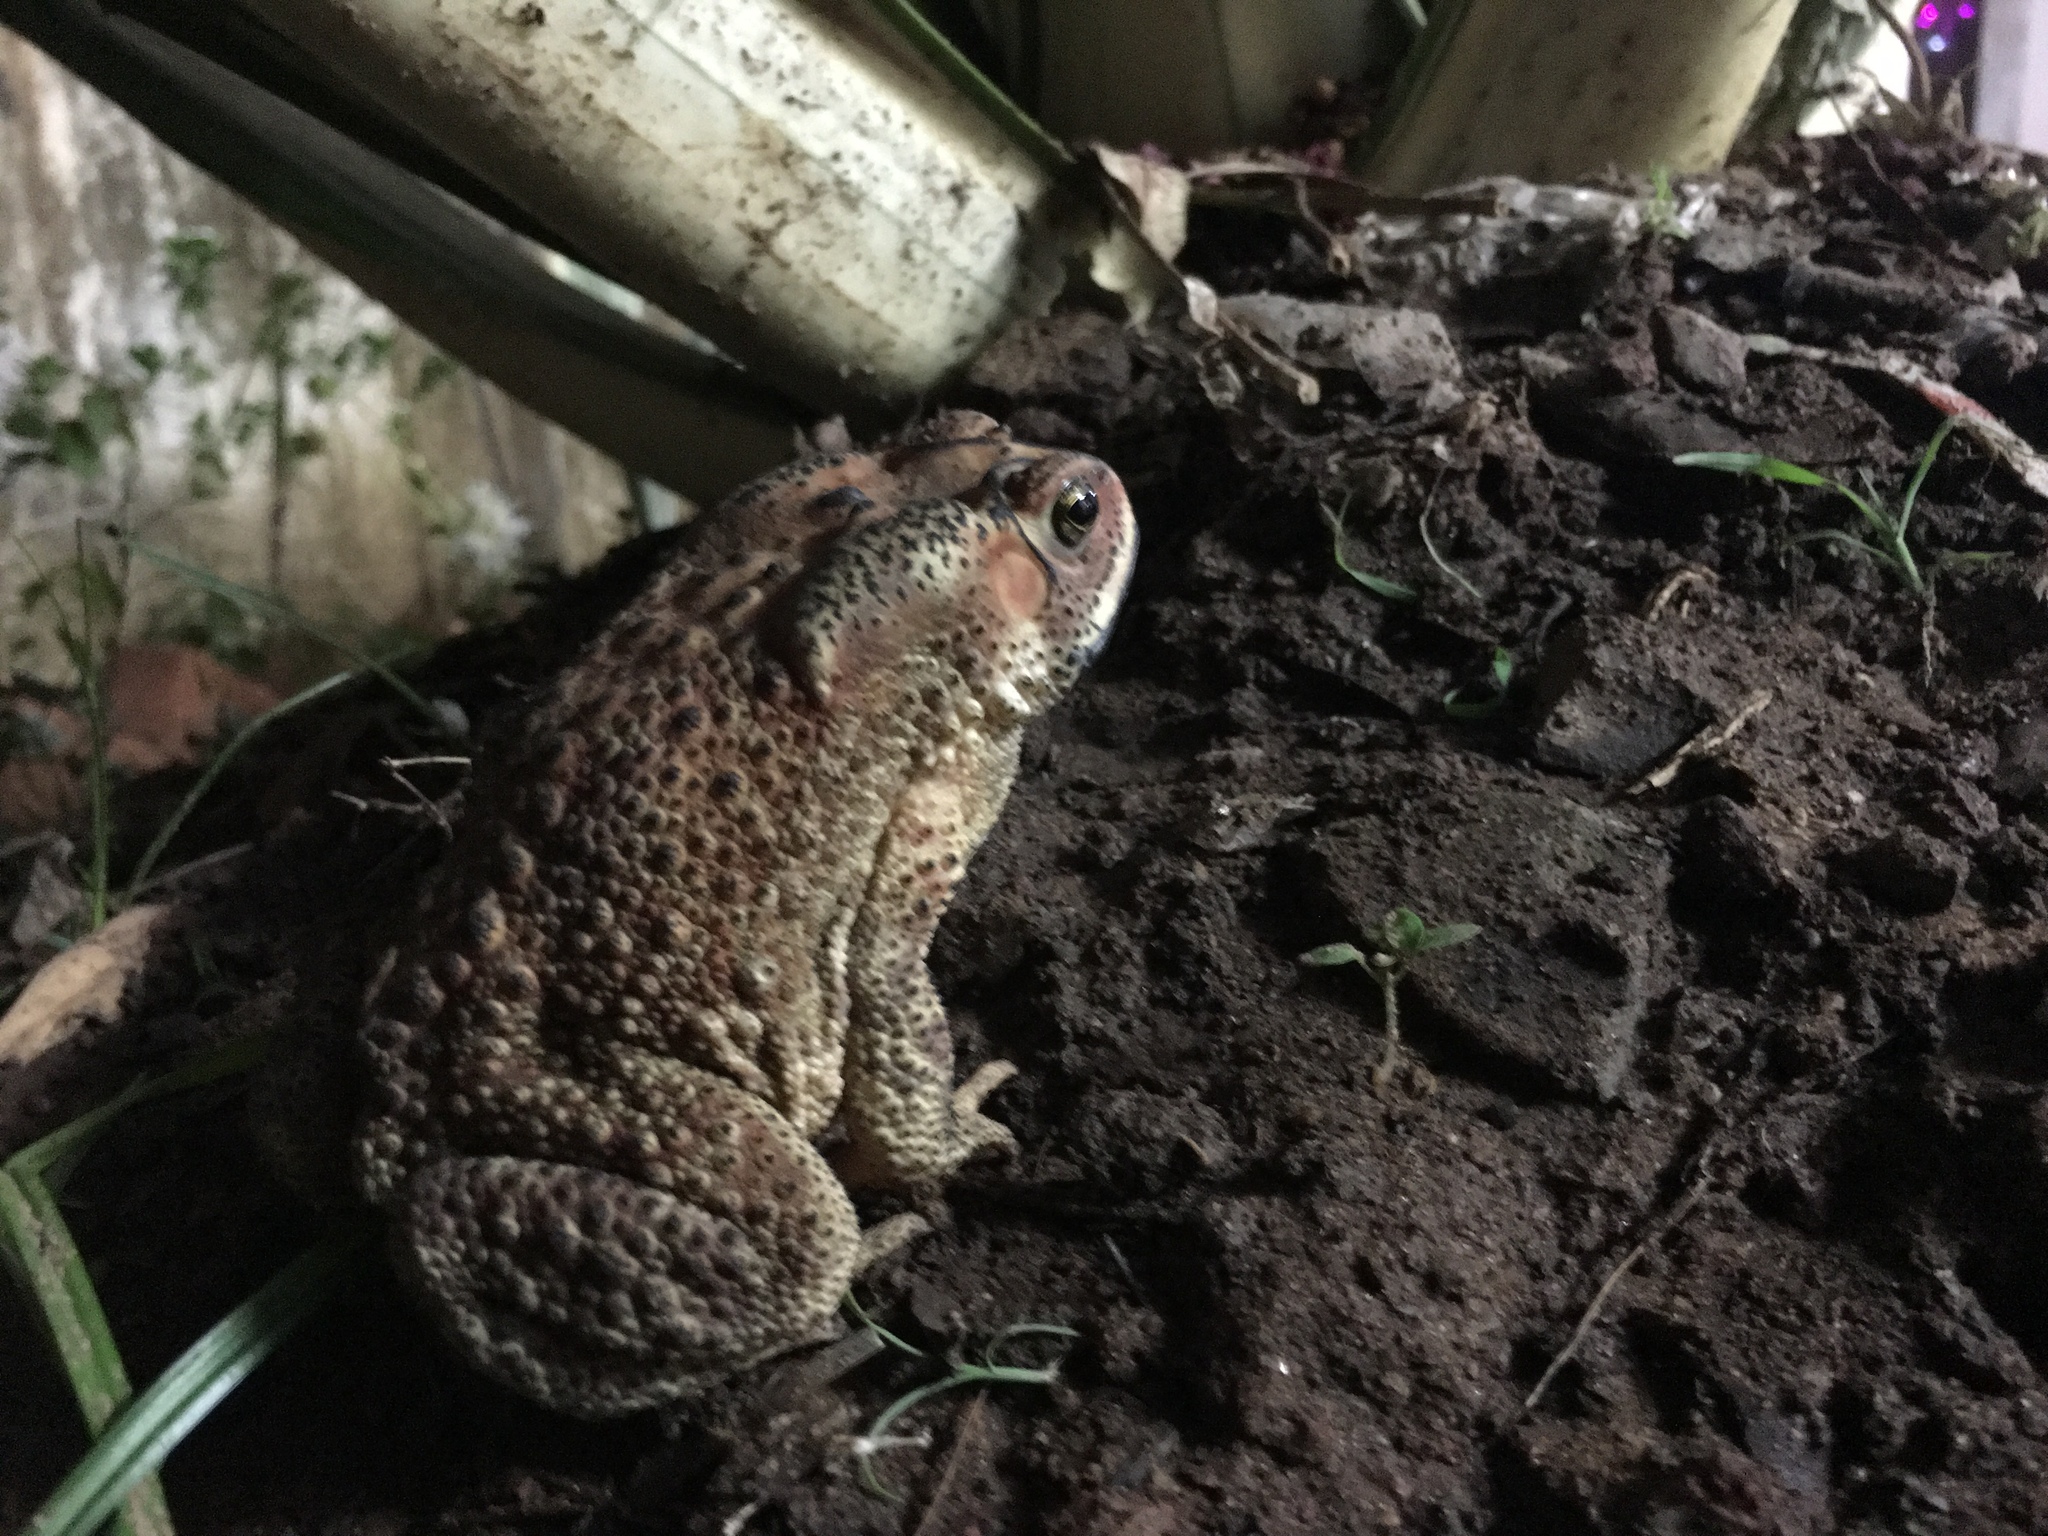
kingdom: Animalia
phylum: Chordata
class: Amphibia
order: Anura
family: Bufonidae
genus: Duttaphrynus
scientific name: Duttaphrynus melanostictus
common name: Common sunda toad
